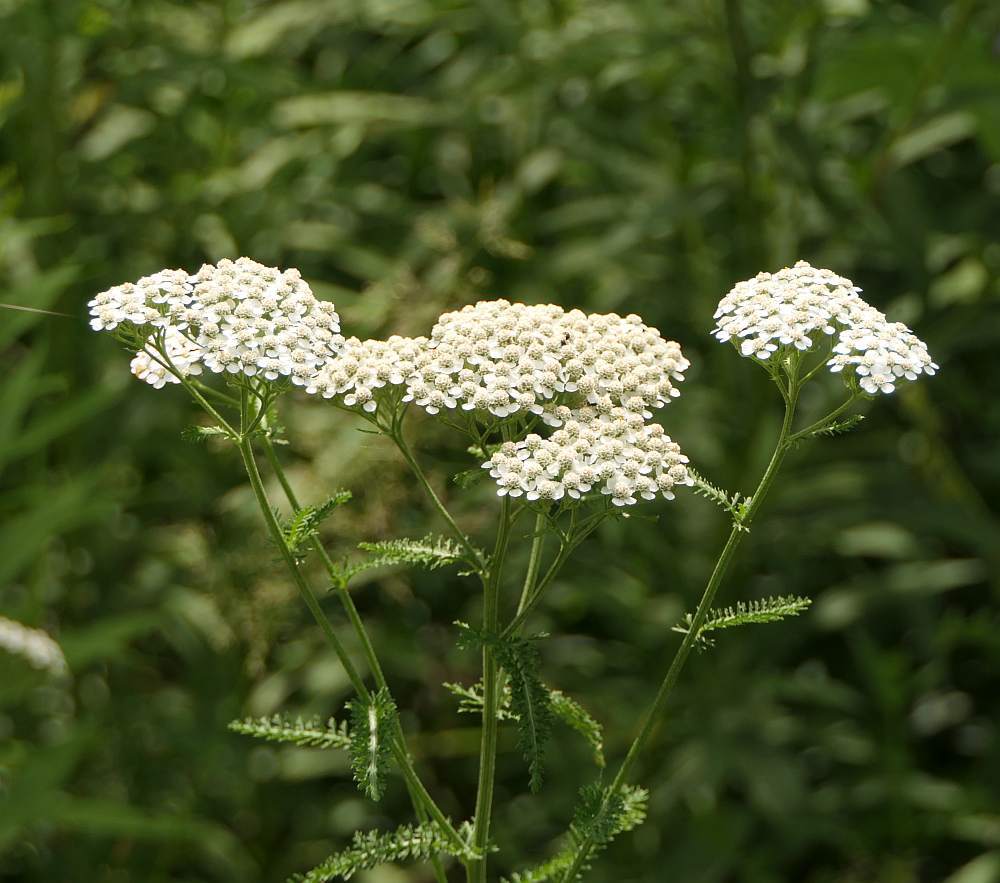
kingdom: Plantae
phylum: Tracheophyta
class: Magnoliopsida
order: Asterales
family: Asteraceae
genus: Achillea
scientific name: Achillea millefolium
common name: Yarrow
